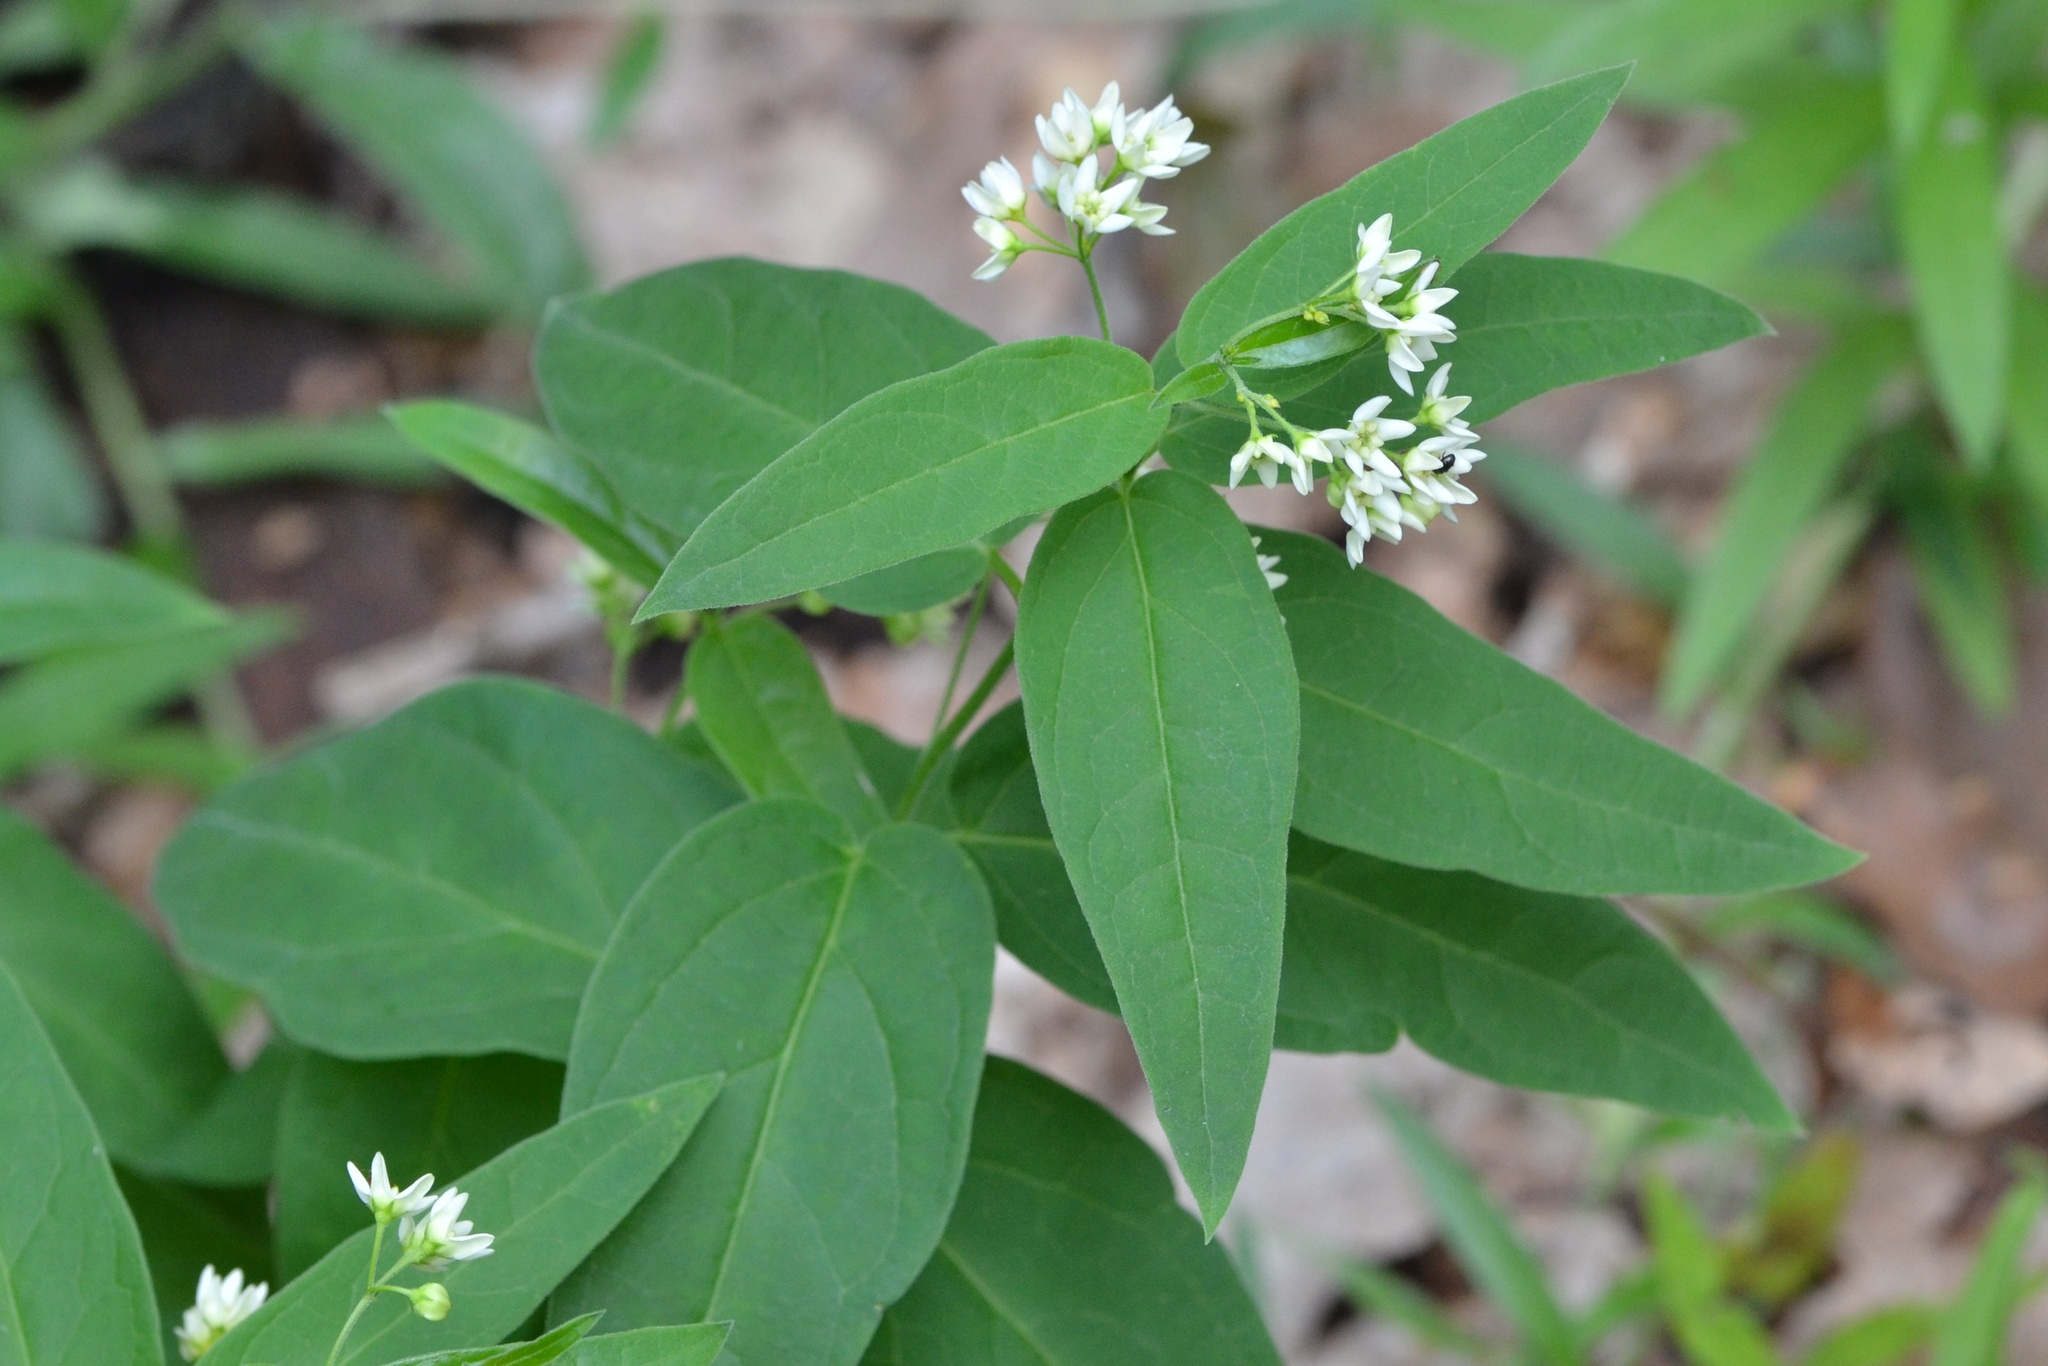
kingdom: Plantae
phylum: Tracheophyta
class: Magnoliopsida
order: Gentianales
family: Apocynaceae
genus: Vincetoxicum
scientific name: Vincetoxicum hirundinaria
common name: White swallowwort
